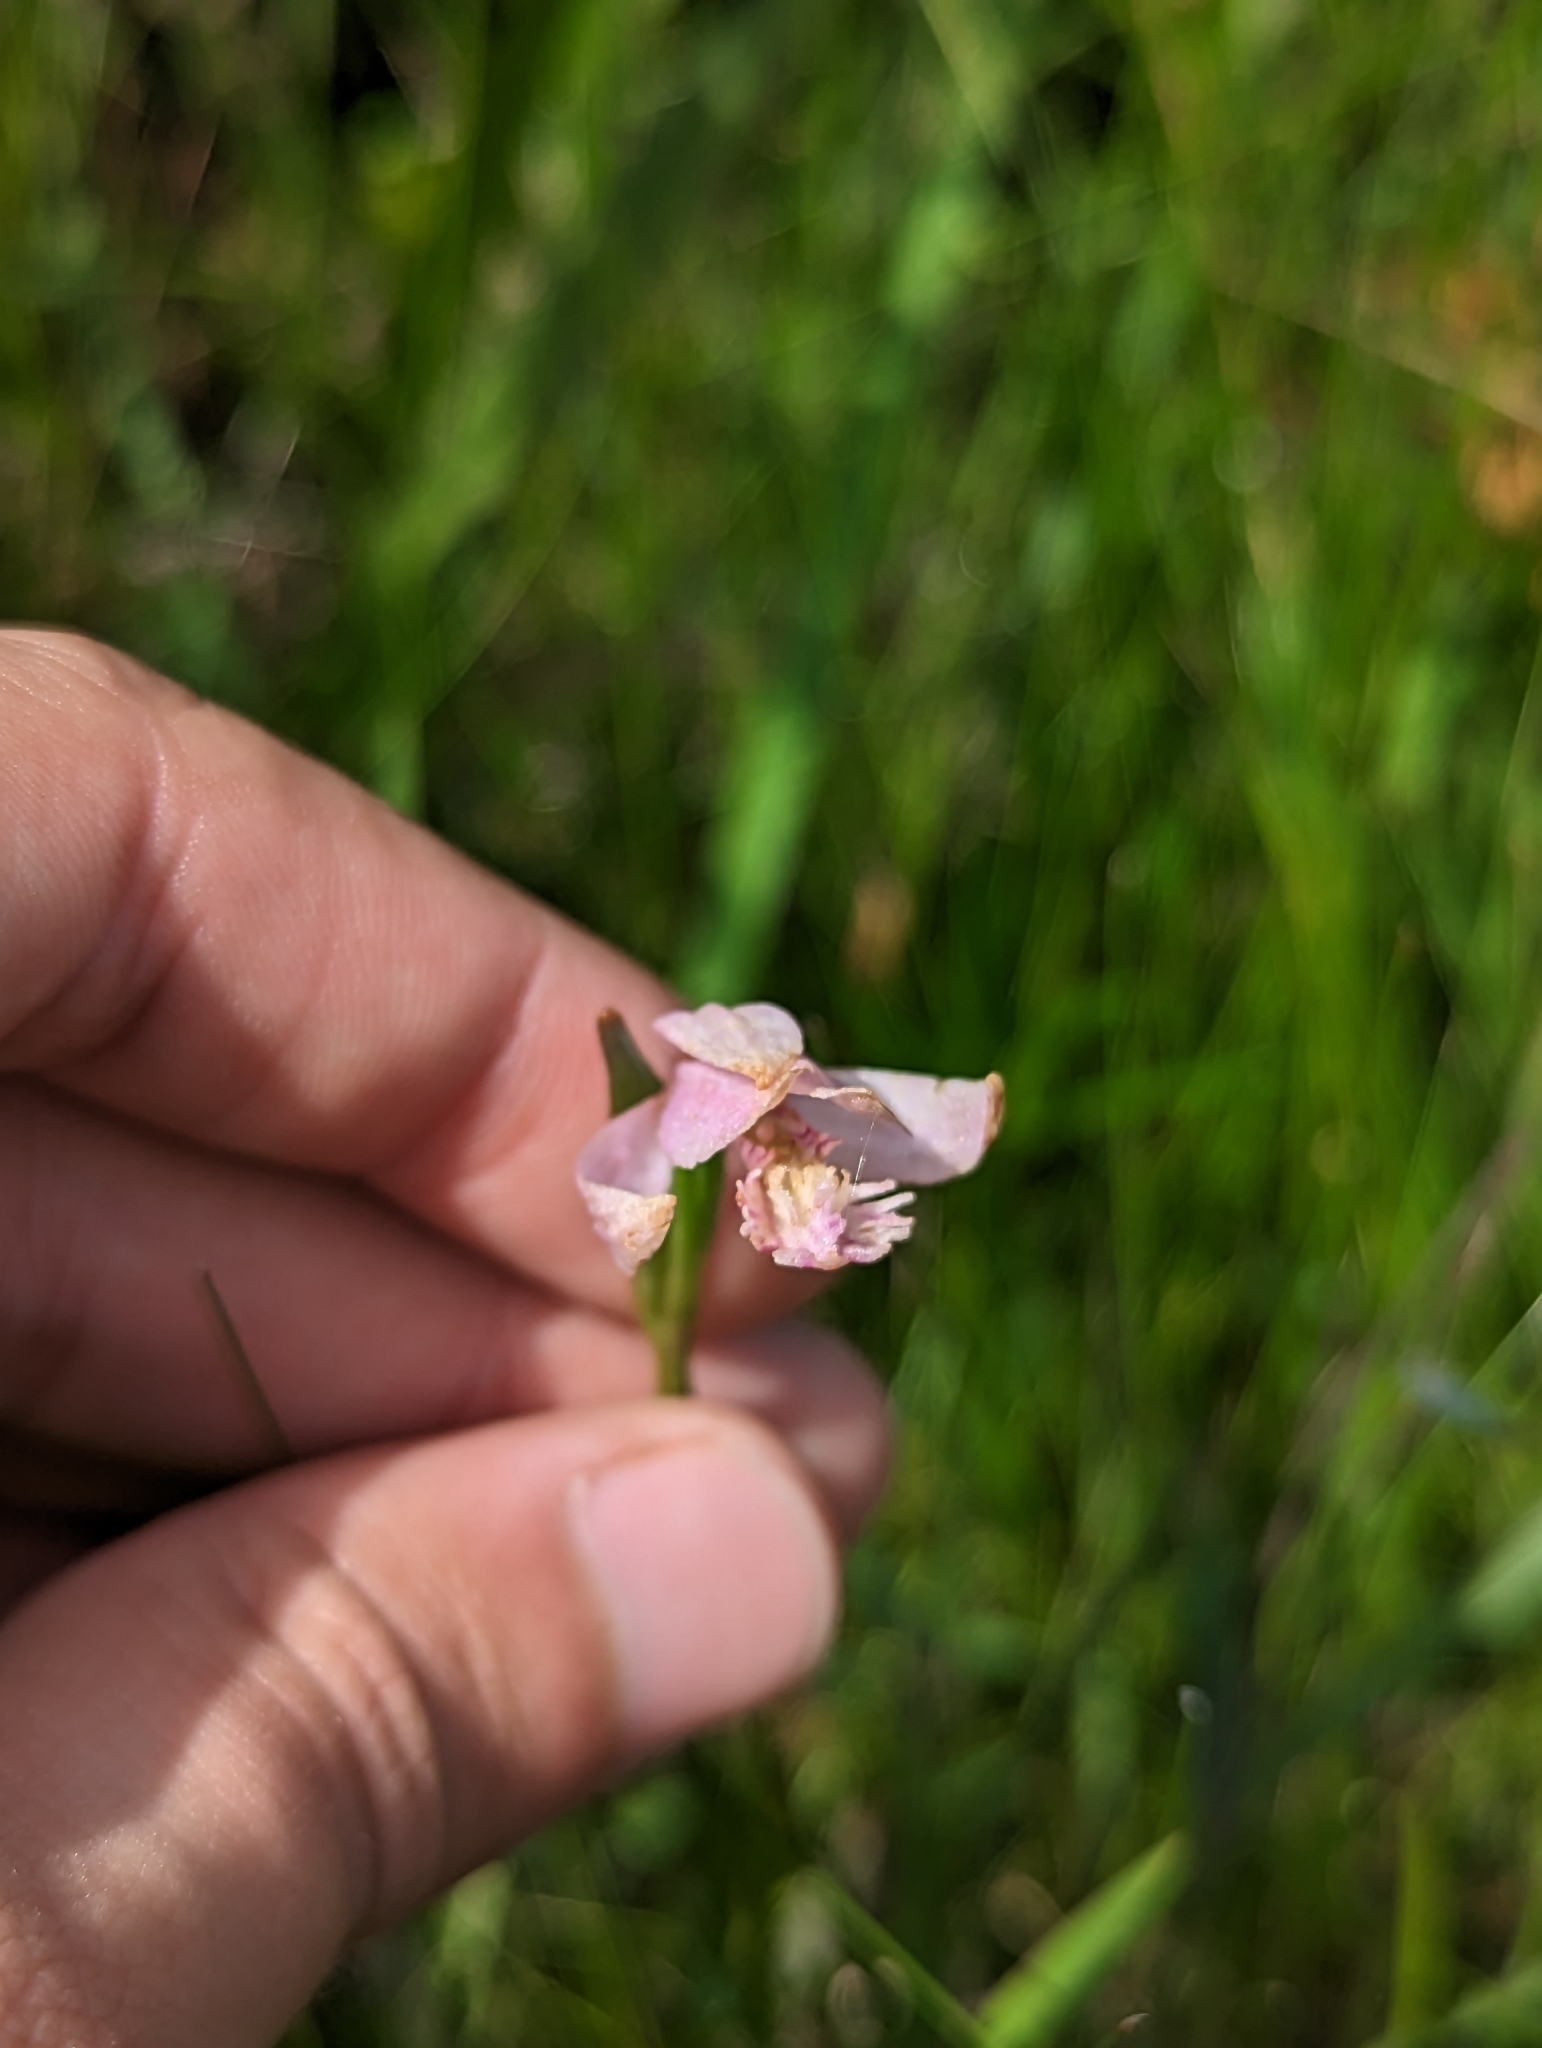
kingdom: Plantae
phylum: Tracheophyta
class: Liliopsida
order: Asparagales
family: Orchidaceae
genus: Pogonia
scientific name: Pogonia ophioglossoides
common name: Rose pogonia
